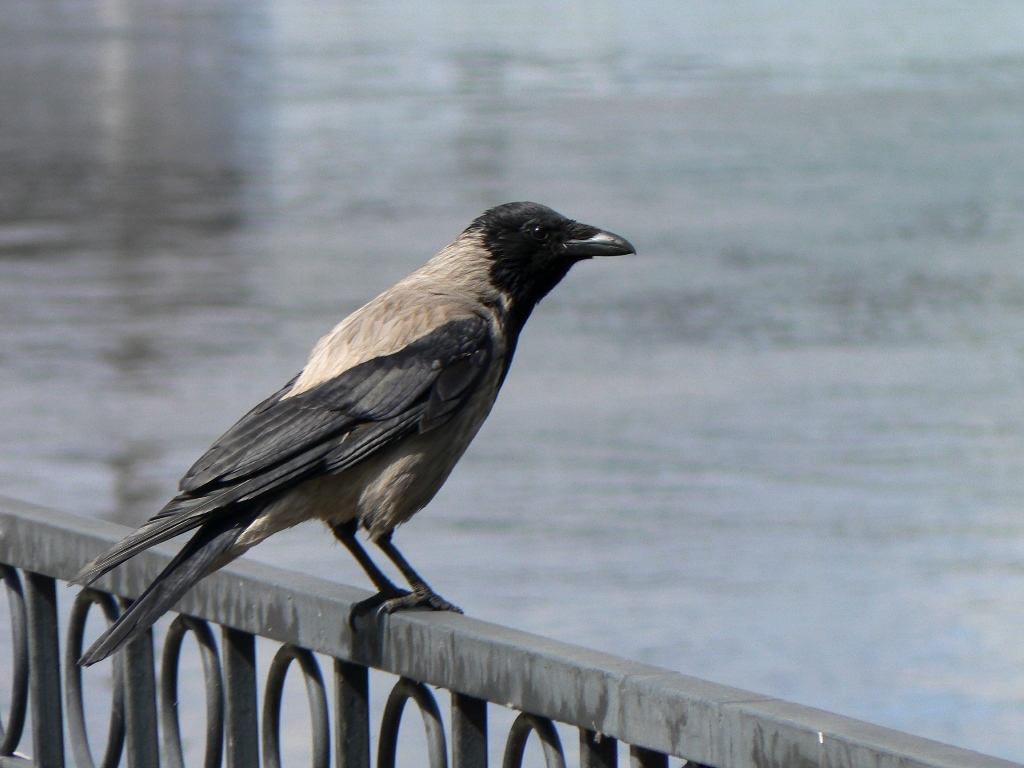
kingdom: Animalia
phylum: Chordata
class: Aves
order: Passeriformes
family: Corvidae
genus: Corvus
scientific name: Corvus cornix
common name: Hooded crow
